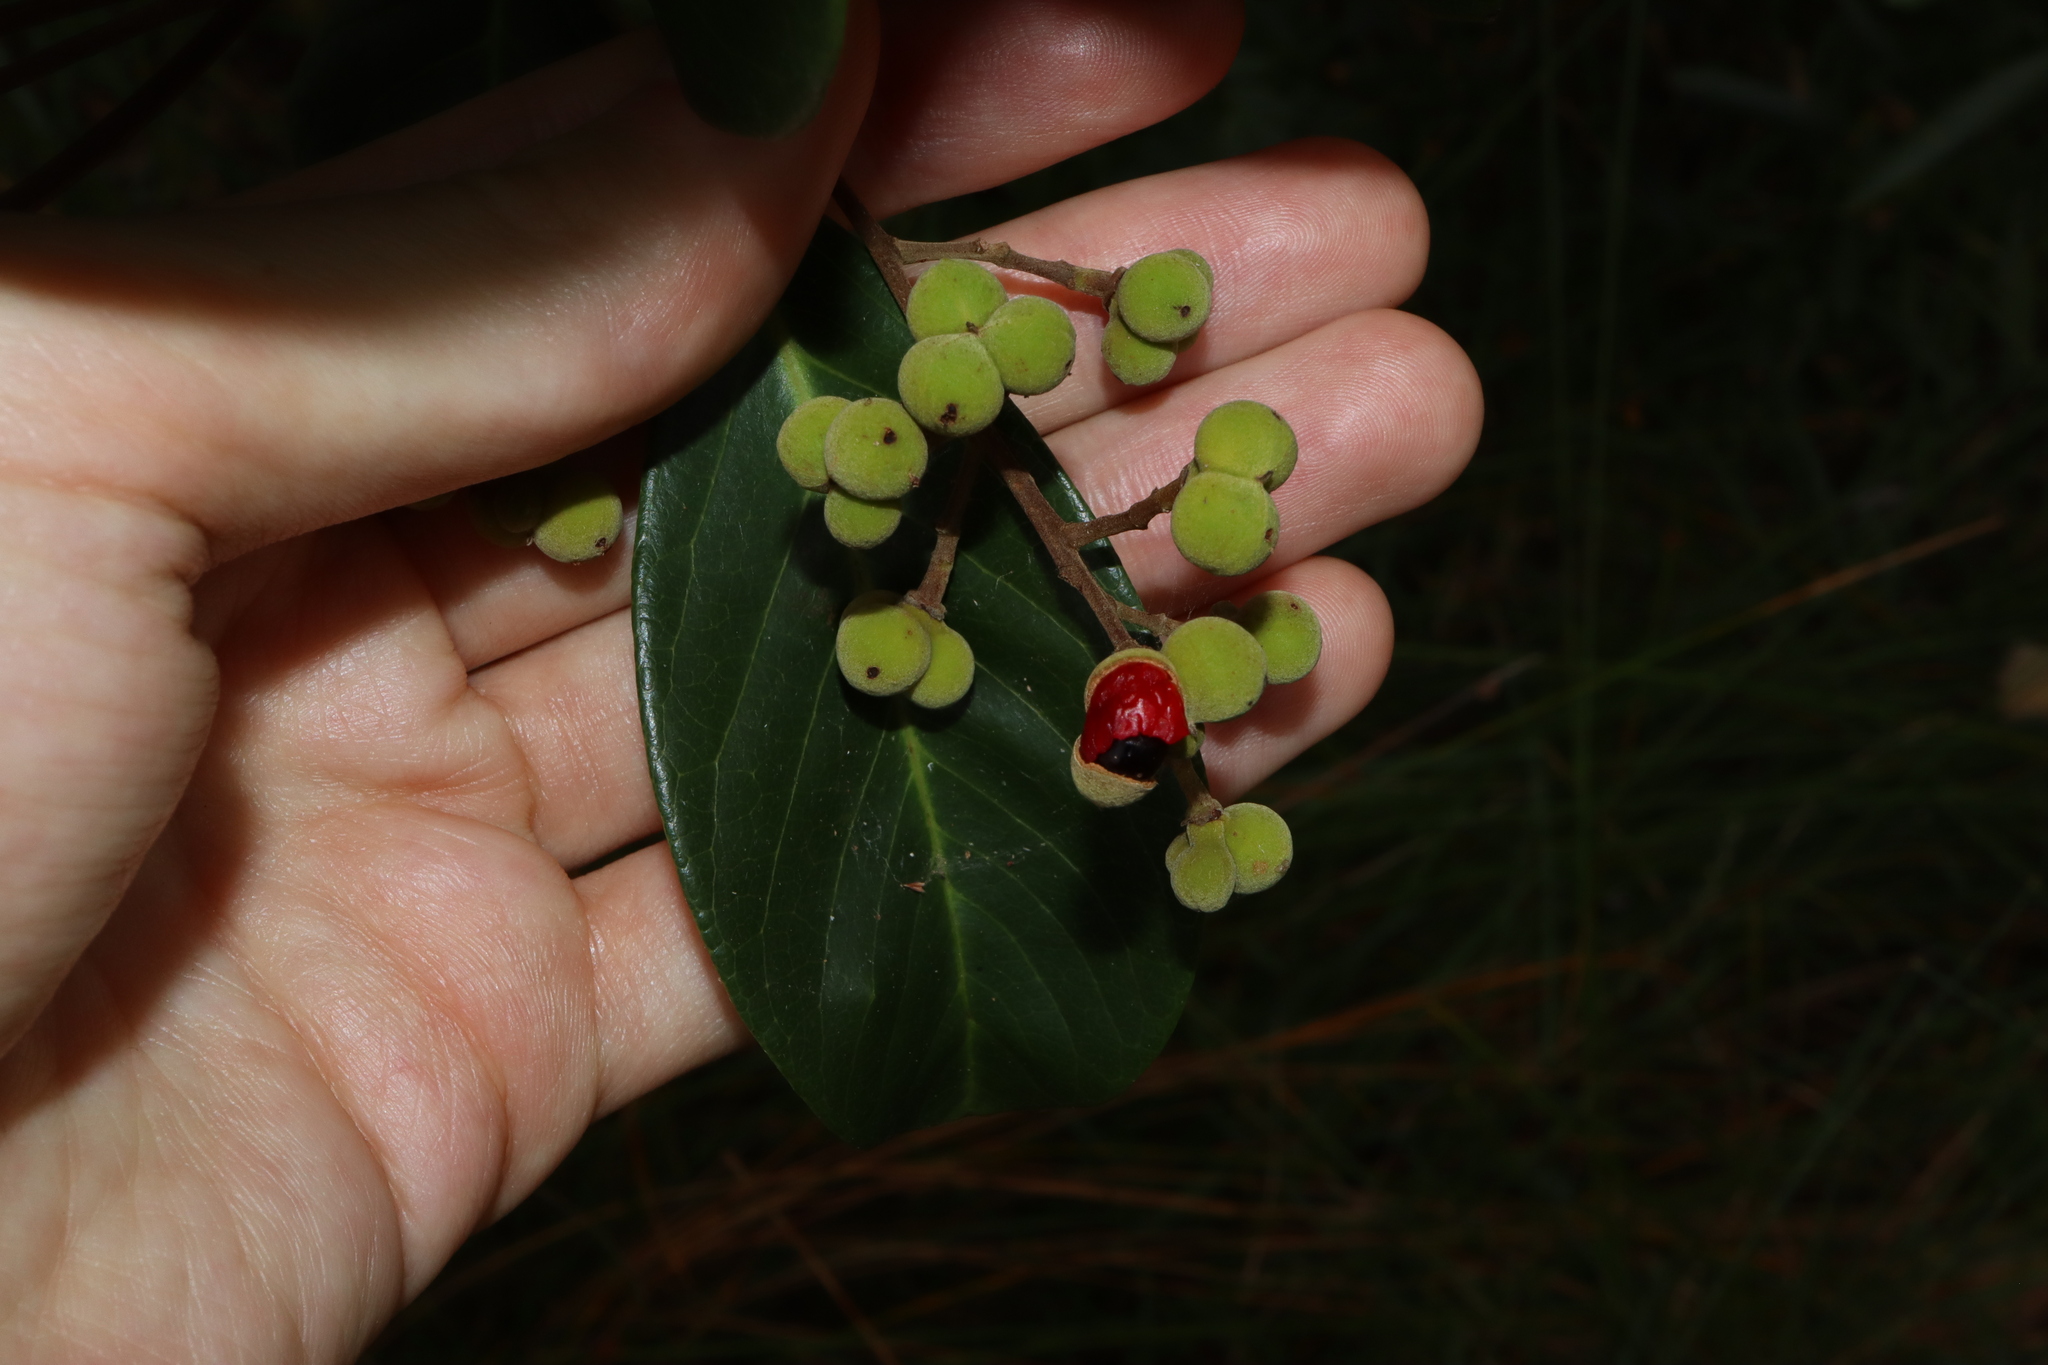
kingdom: Plantae
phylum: Tracheophyta
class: Magnoliopsida
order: Sapindales
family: Sapindaceae
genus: Alectryon
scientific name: Alectryon coriaceus
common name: Beach alectryon
